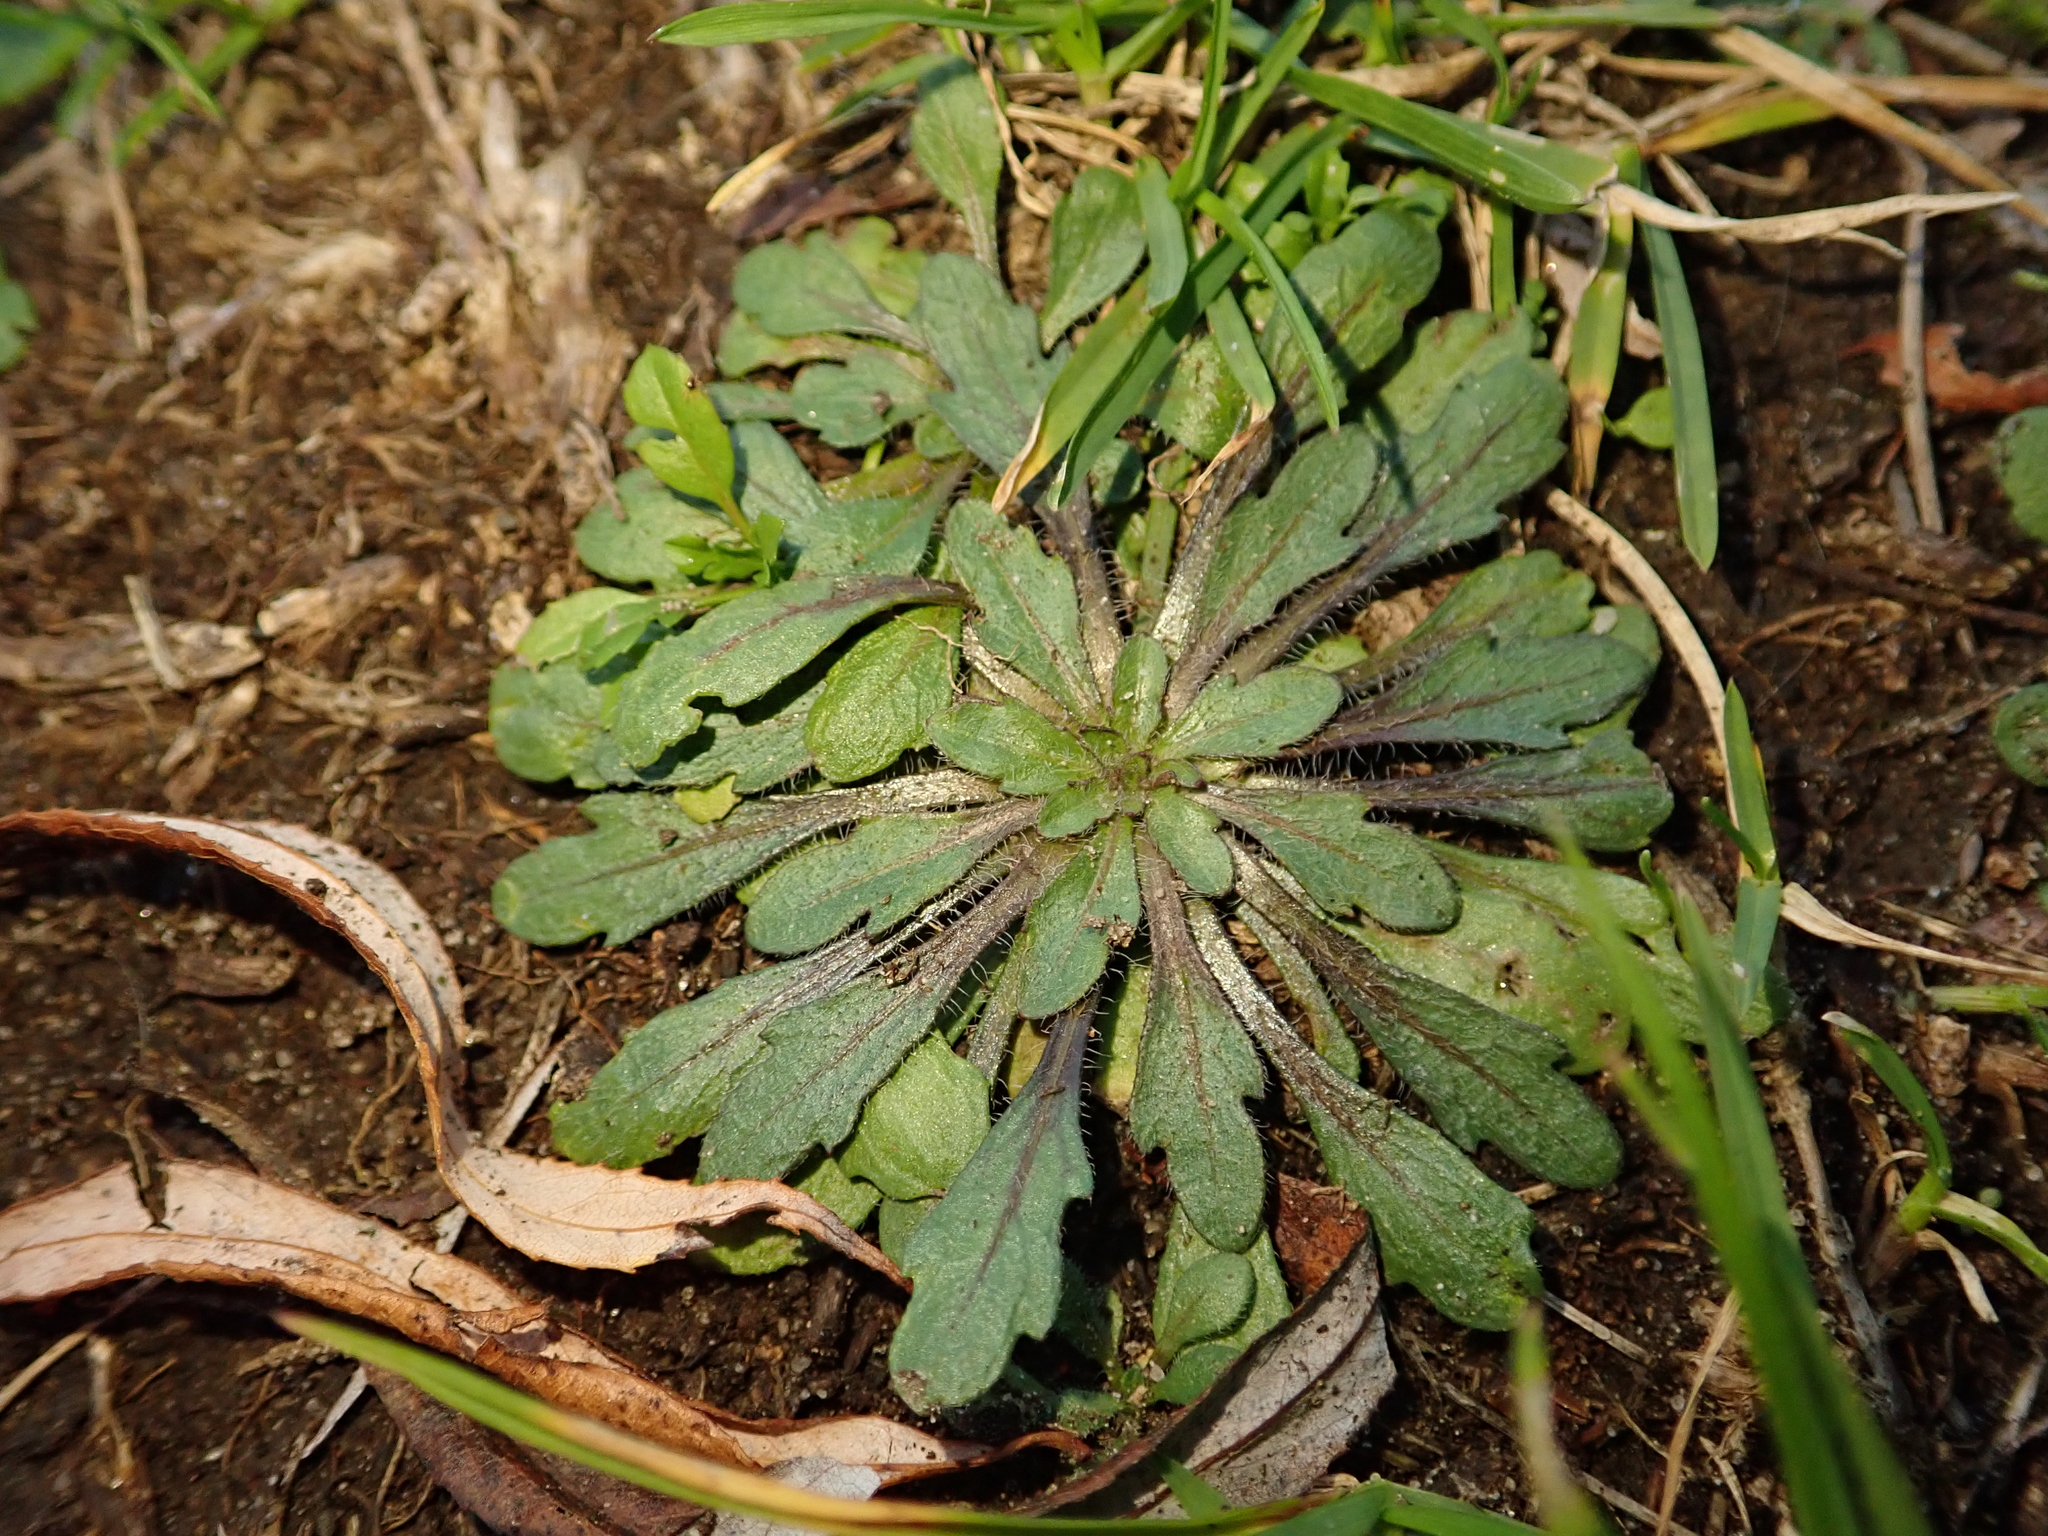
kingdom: Plantae
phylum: Tracheophyta
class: Magnoliopsida
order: Asterales
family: Asteraceae
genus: Erigeron
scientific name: Erigeron canadensis
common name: Canadian fleabane
